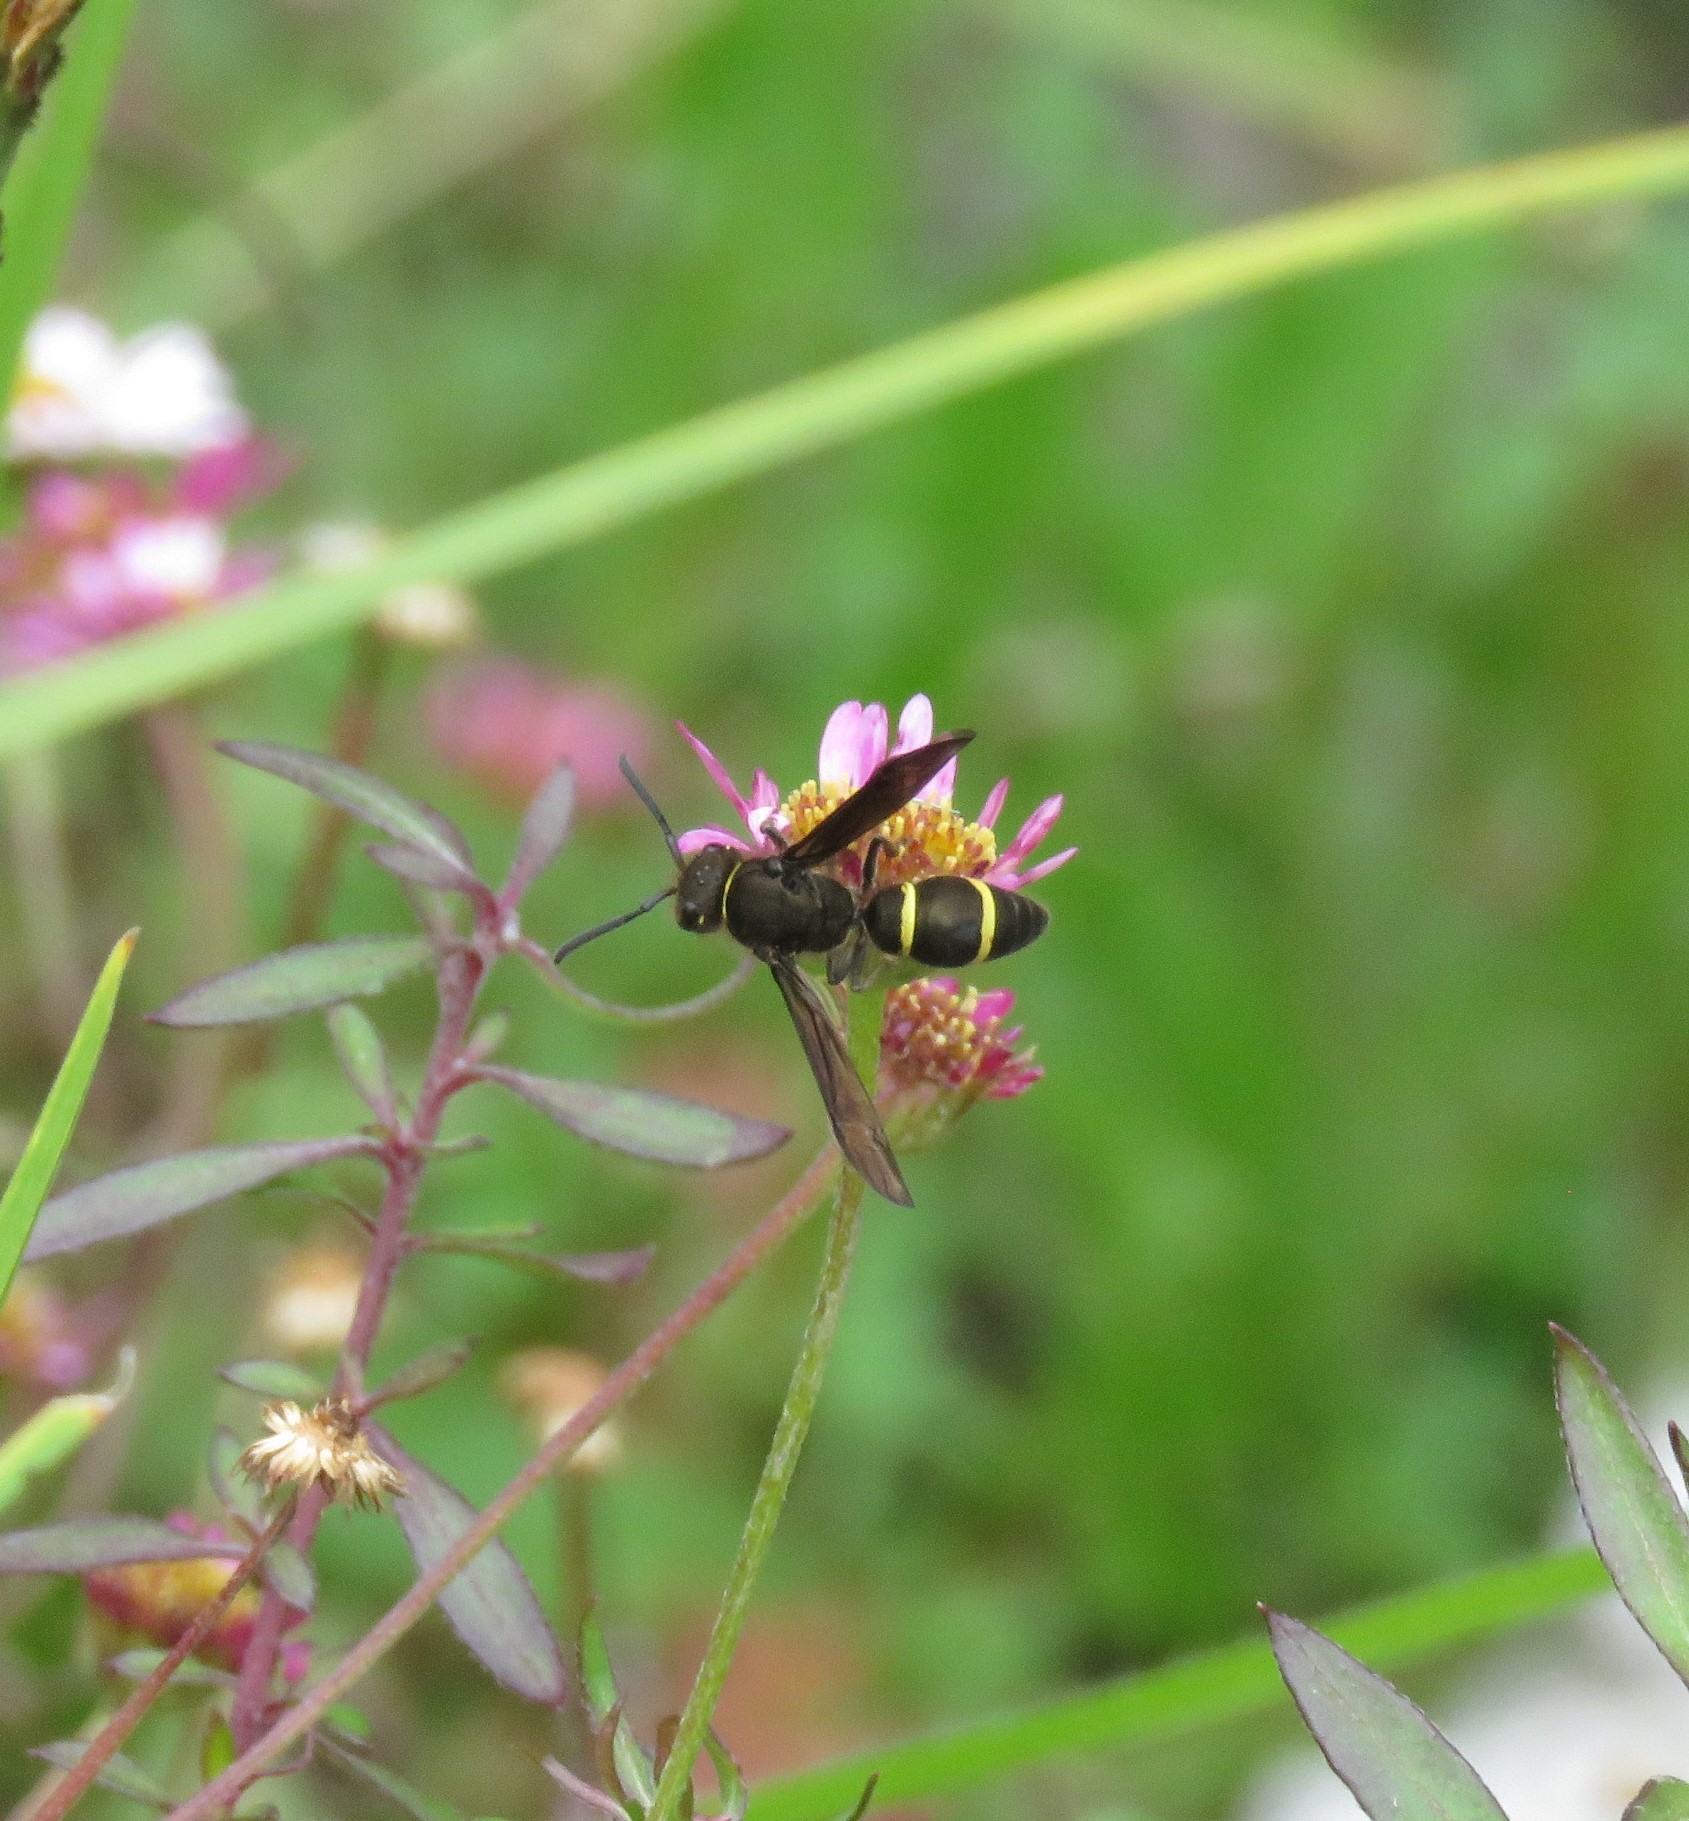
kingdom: Plantae
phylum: Tracheophyta
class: Magnoliopsida
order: Asterales
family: Asteraceae
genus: Erigeron
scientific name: Erigeron karvinskianus
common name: Mexican fleabane
